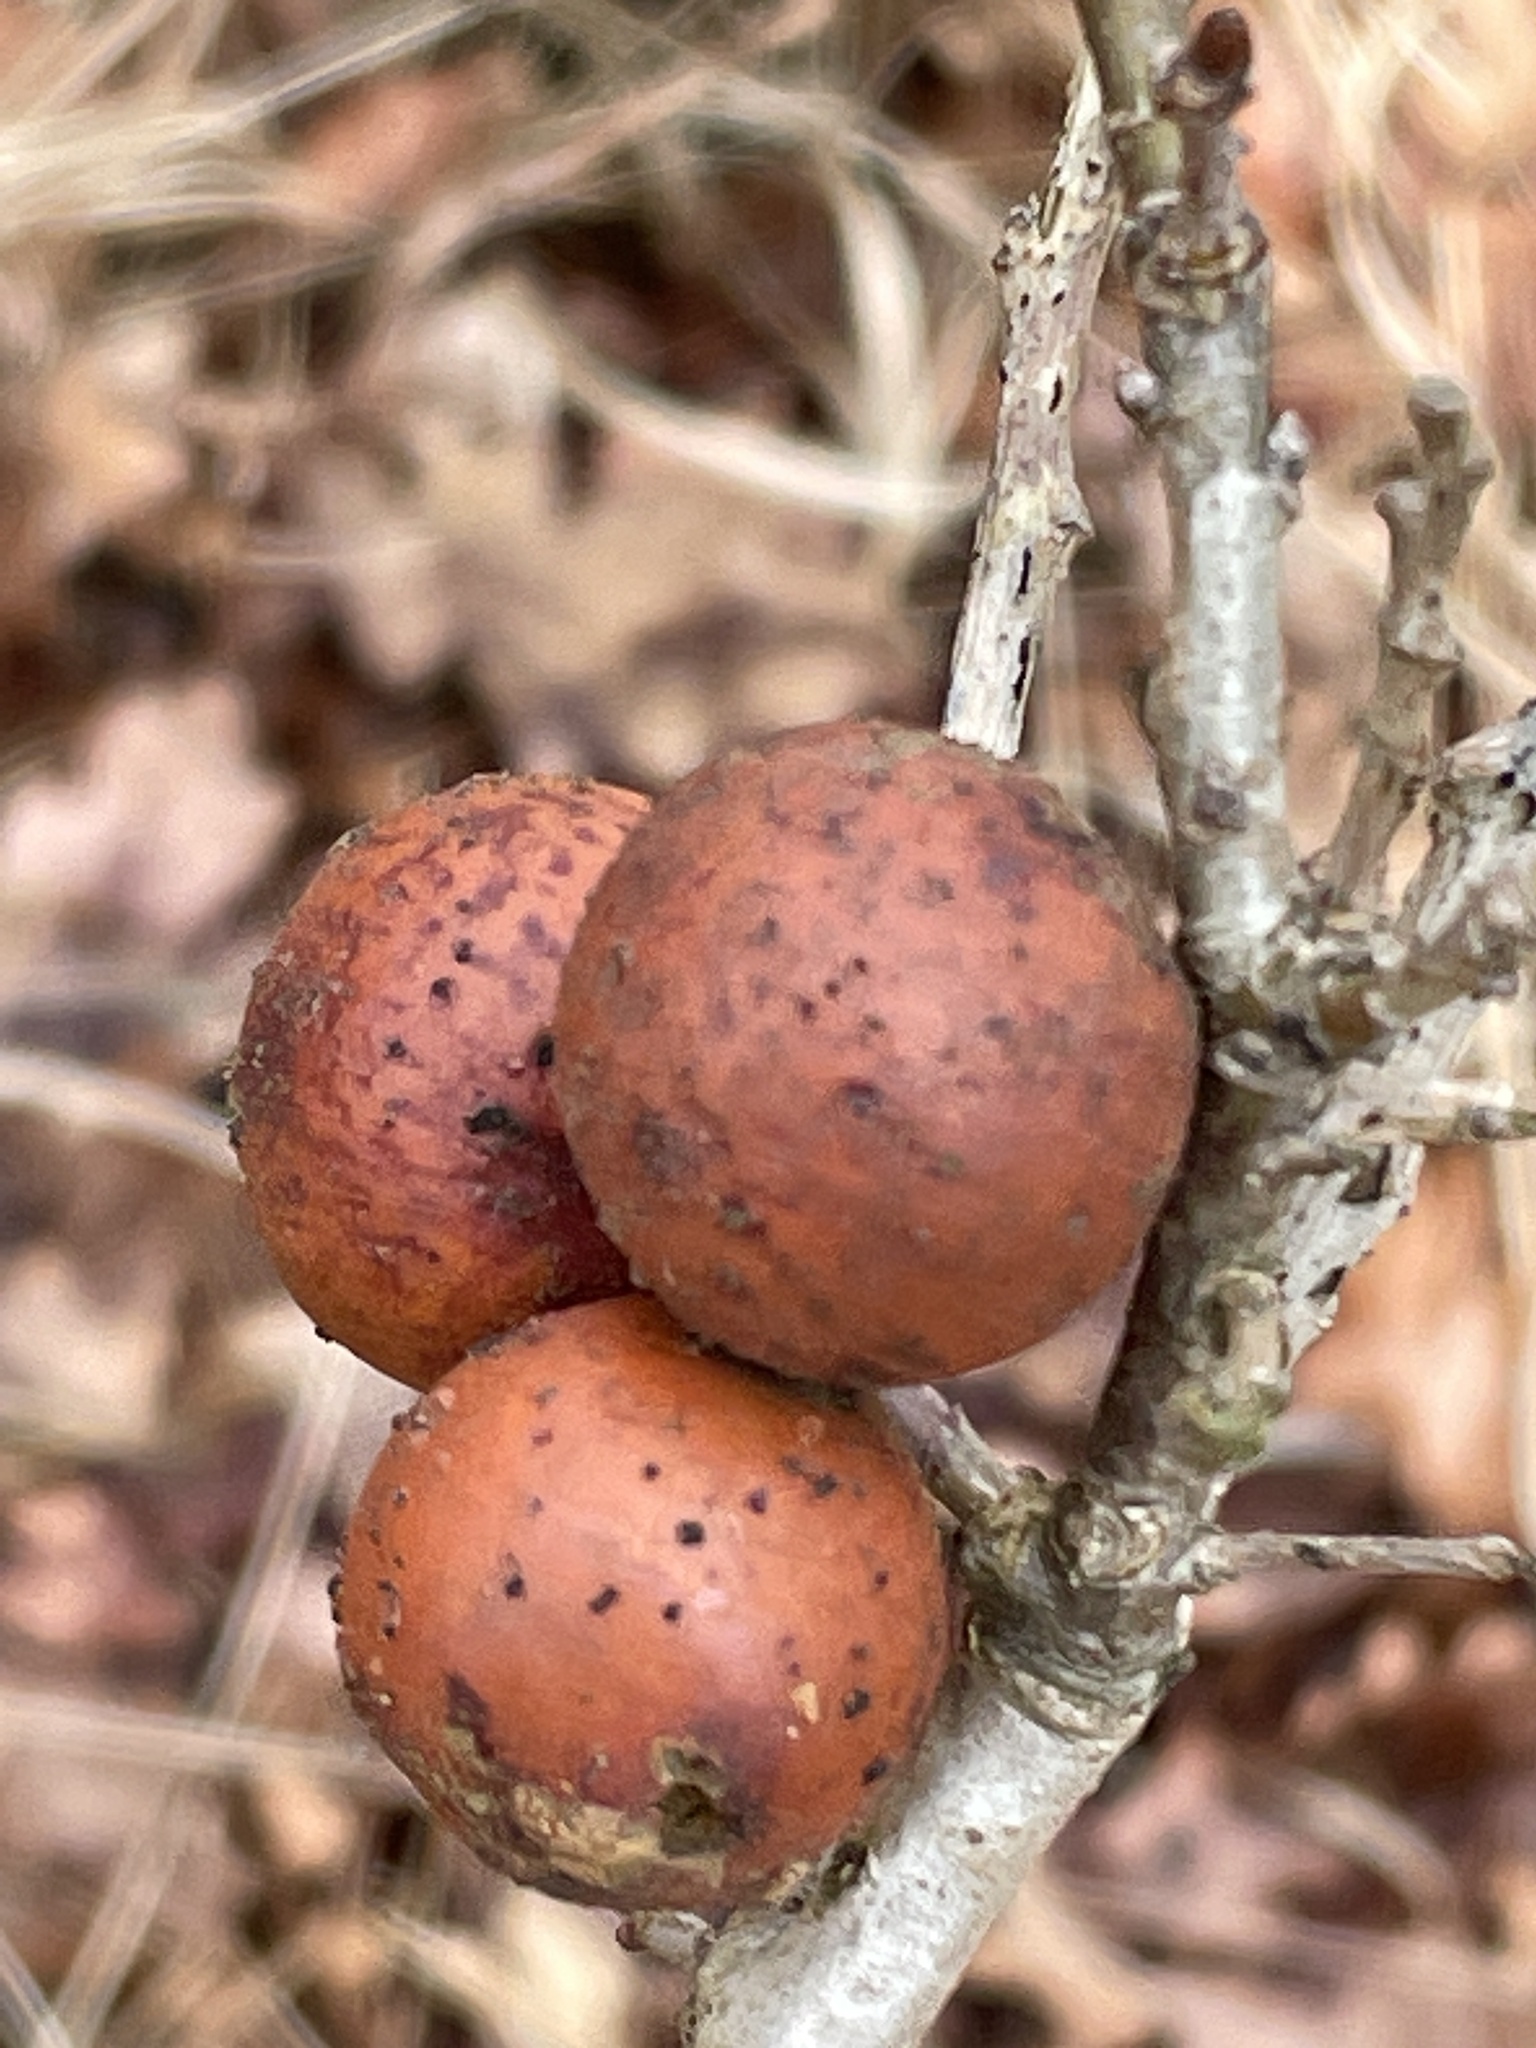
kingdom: Animalia
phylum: Arthropoda
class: Insecta
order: Hymenoptera
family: Cynipidae
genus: Andricus
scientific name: Andricus kollari
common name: Marble gall
